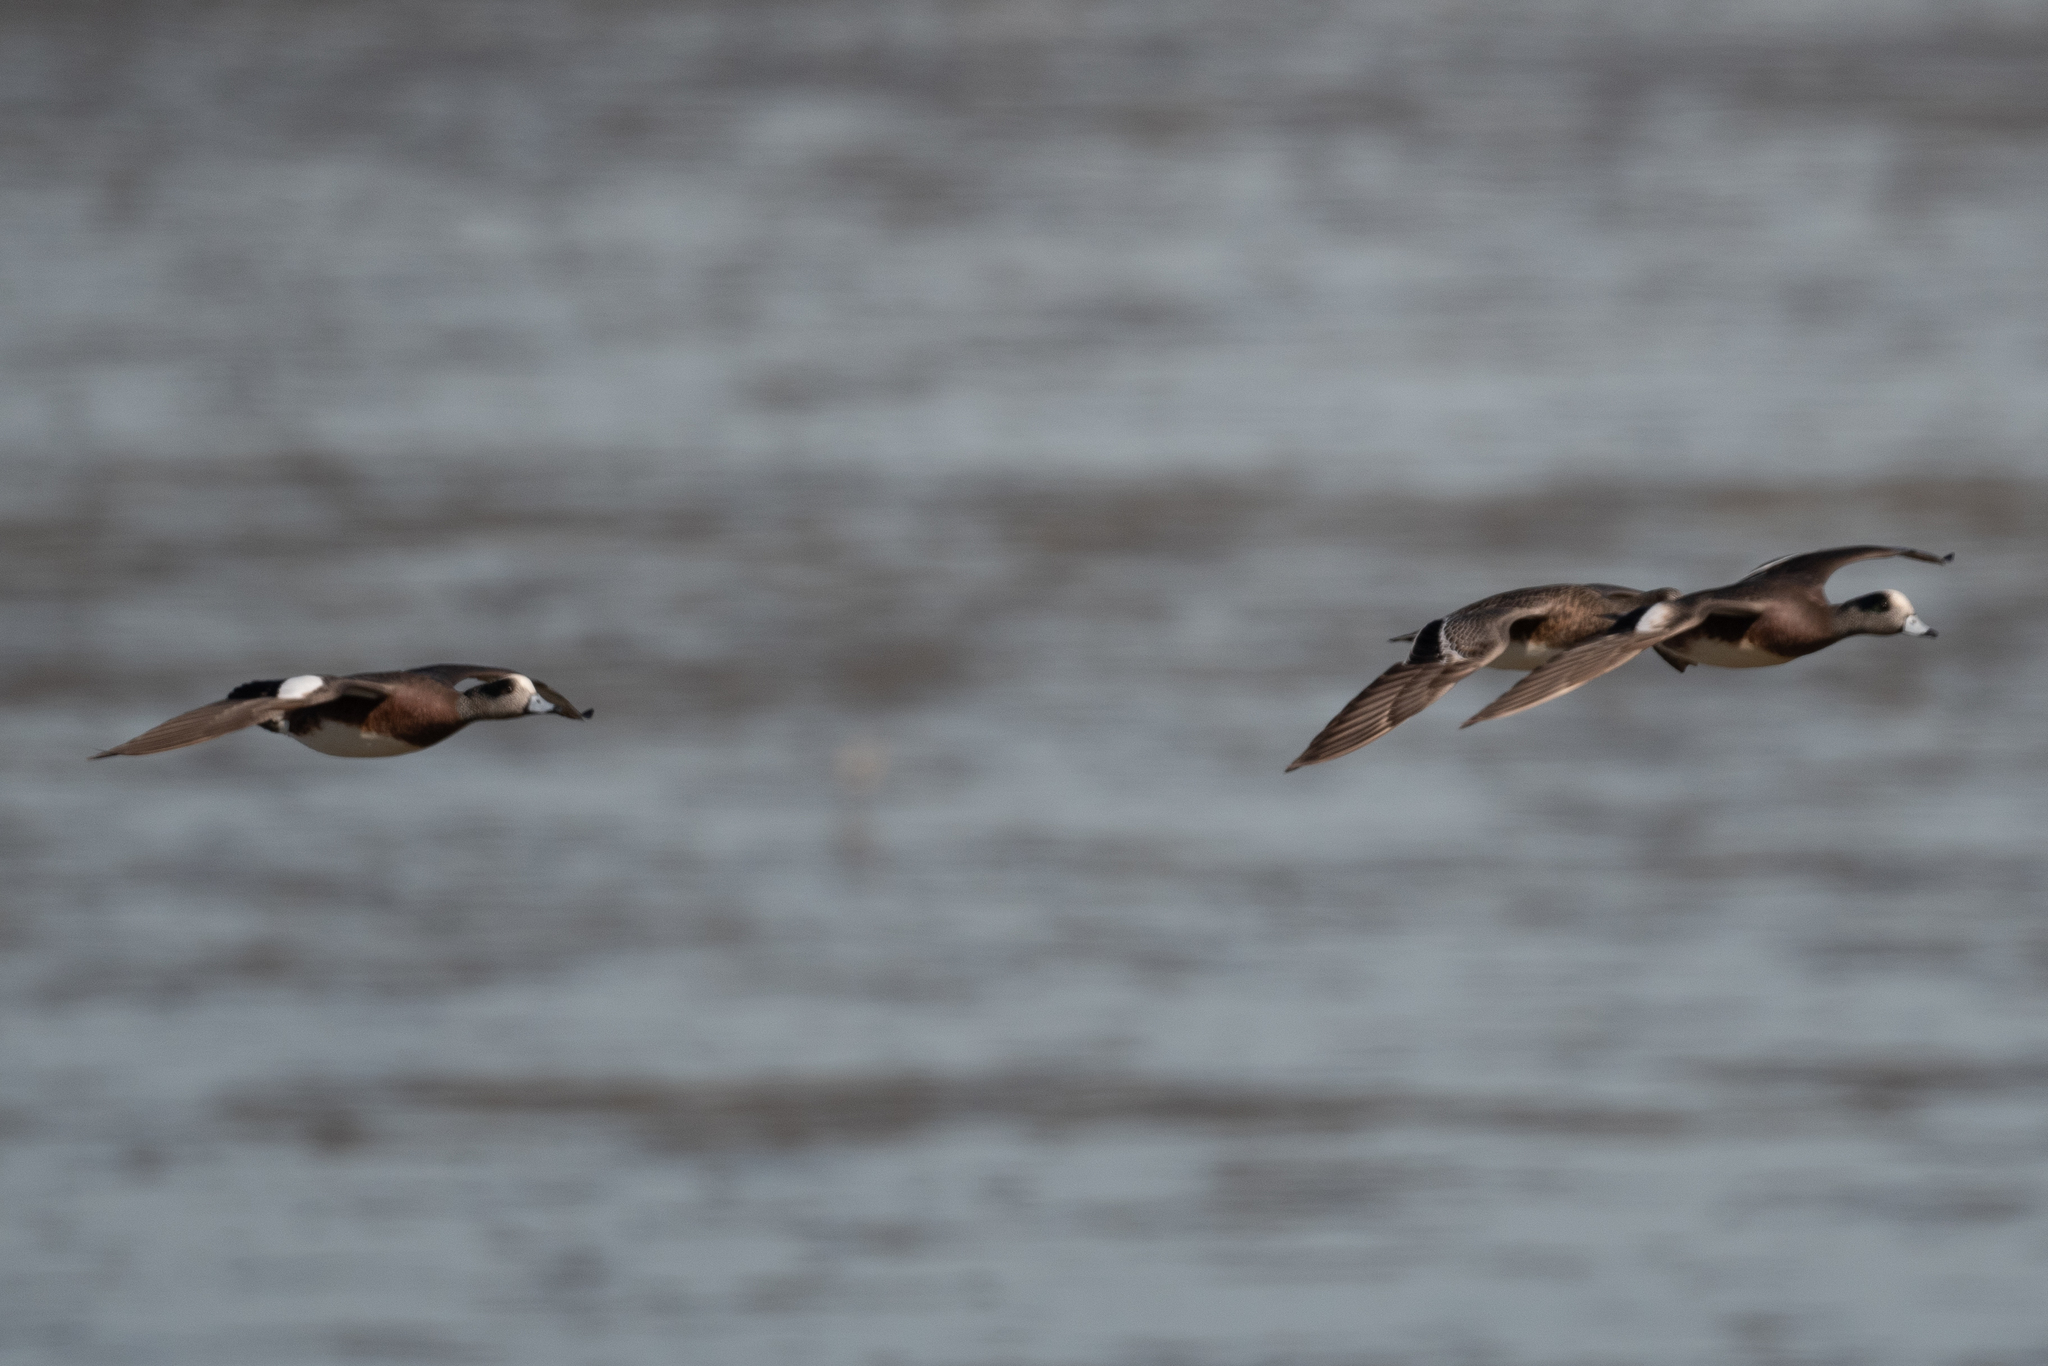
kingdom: Animalia
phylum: Chordata
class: Aves
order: Anseriformes
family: Anatidae
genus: Mareca
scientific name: Mareca americana
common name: American wigeon
